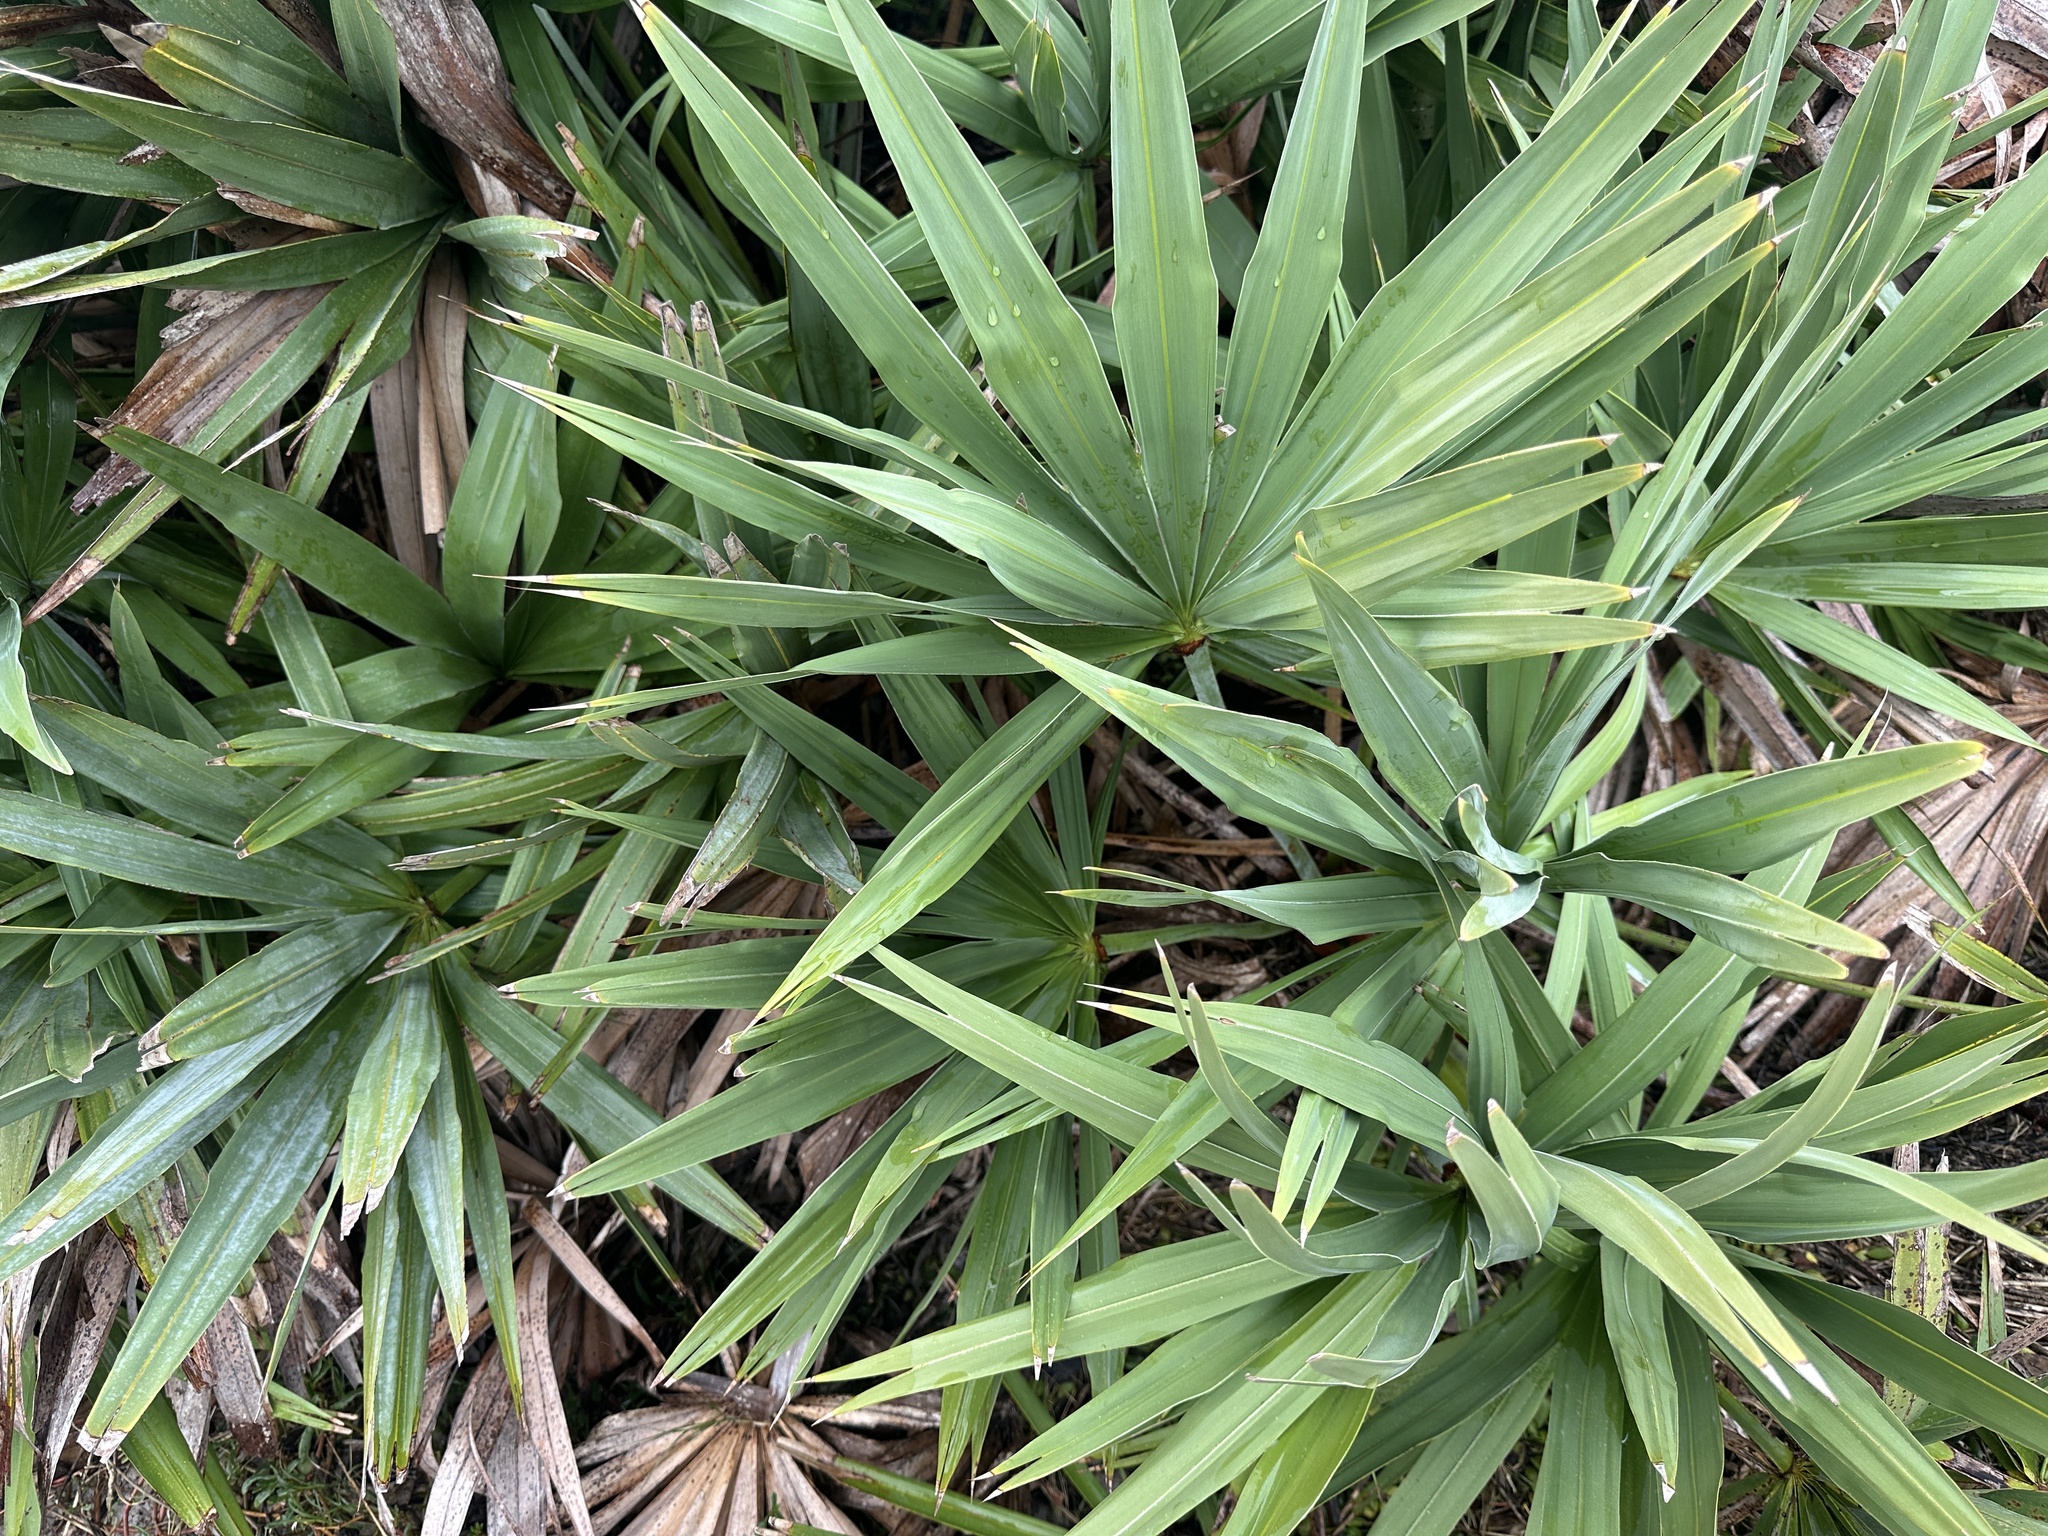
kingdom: Plantae
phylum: Tracheophyta
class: Liliopsida
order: Arecales
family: Arecaceae
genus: Serenoa
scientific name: Serenoa repens
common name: Saw-palmetto
